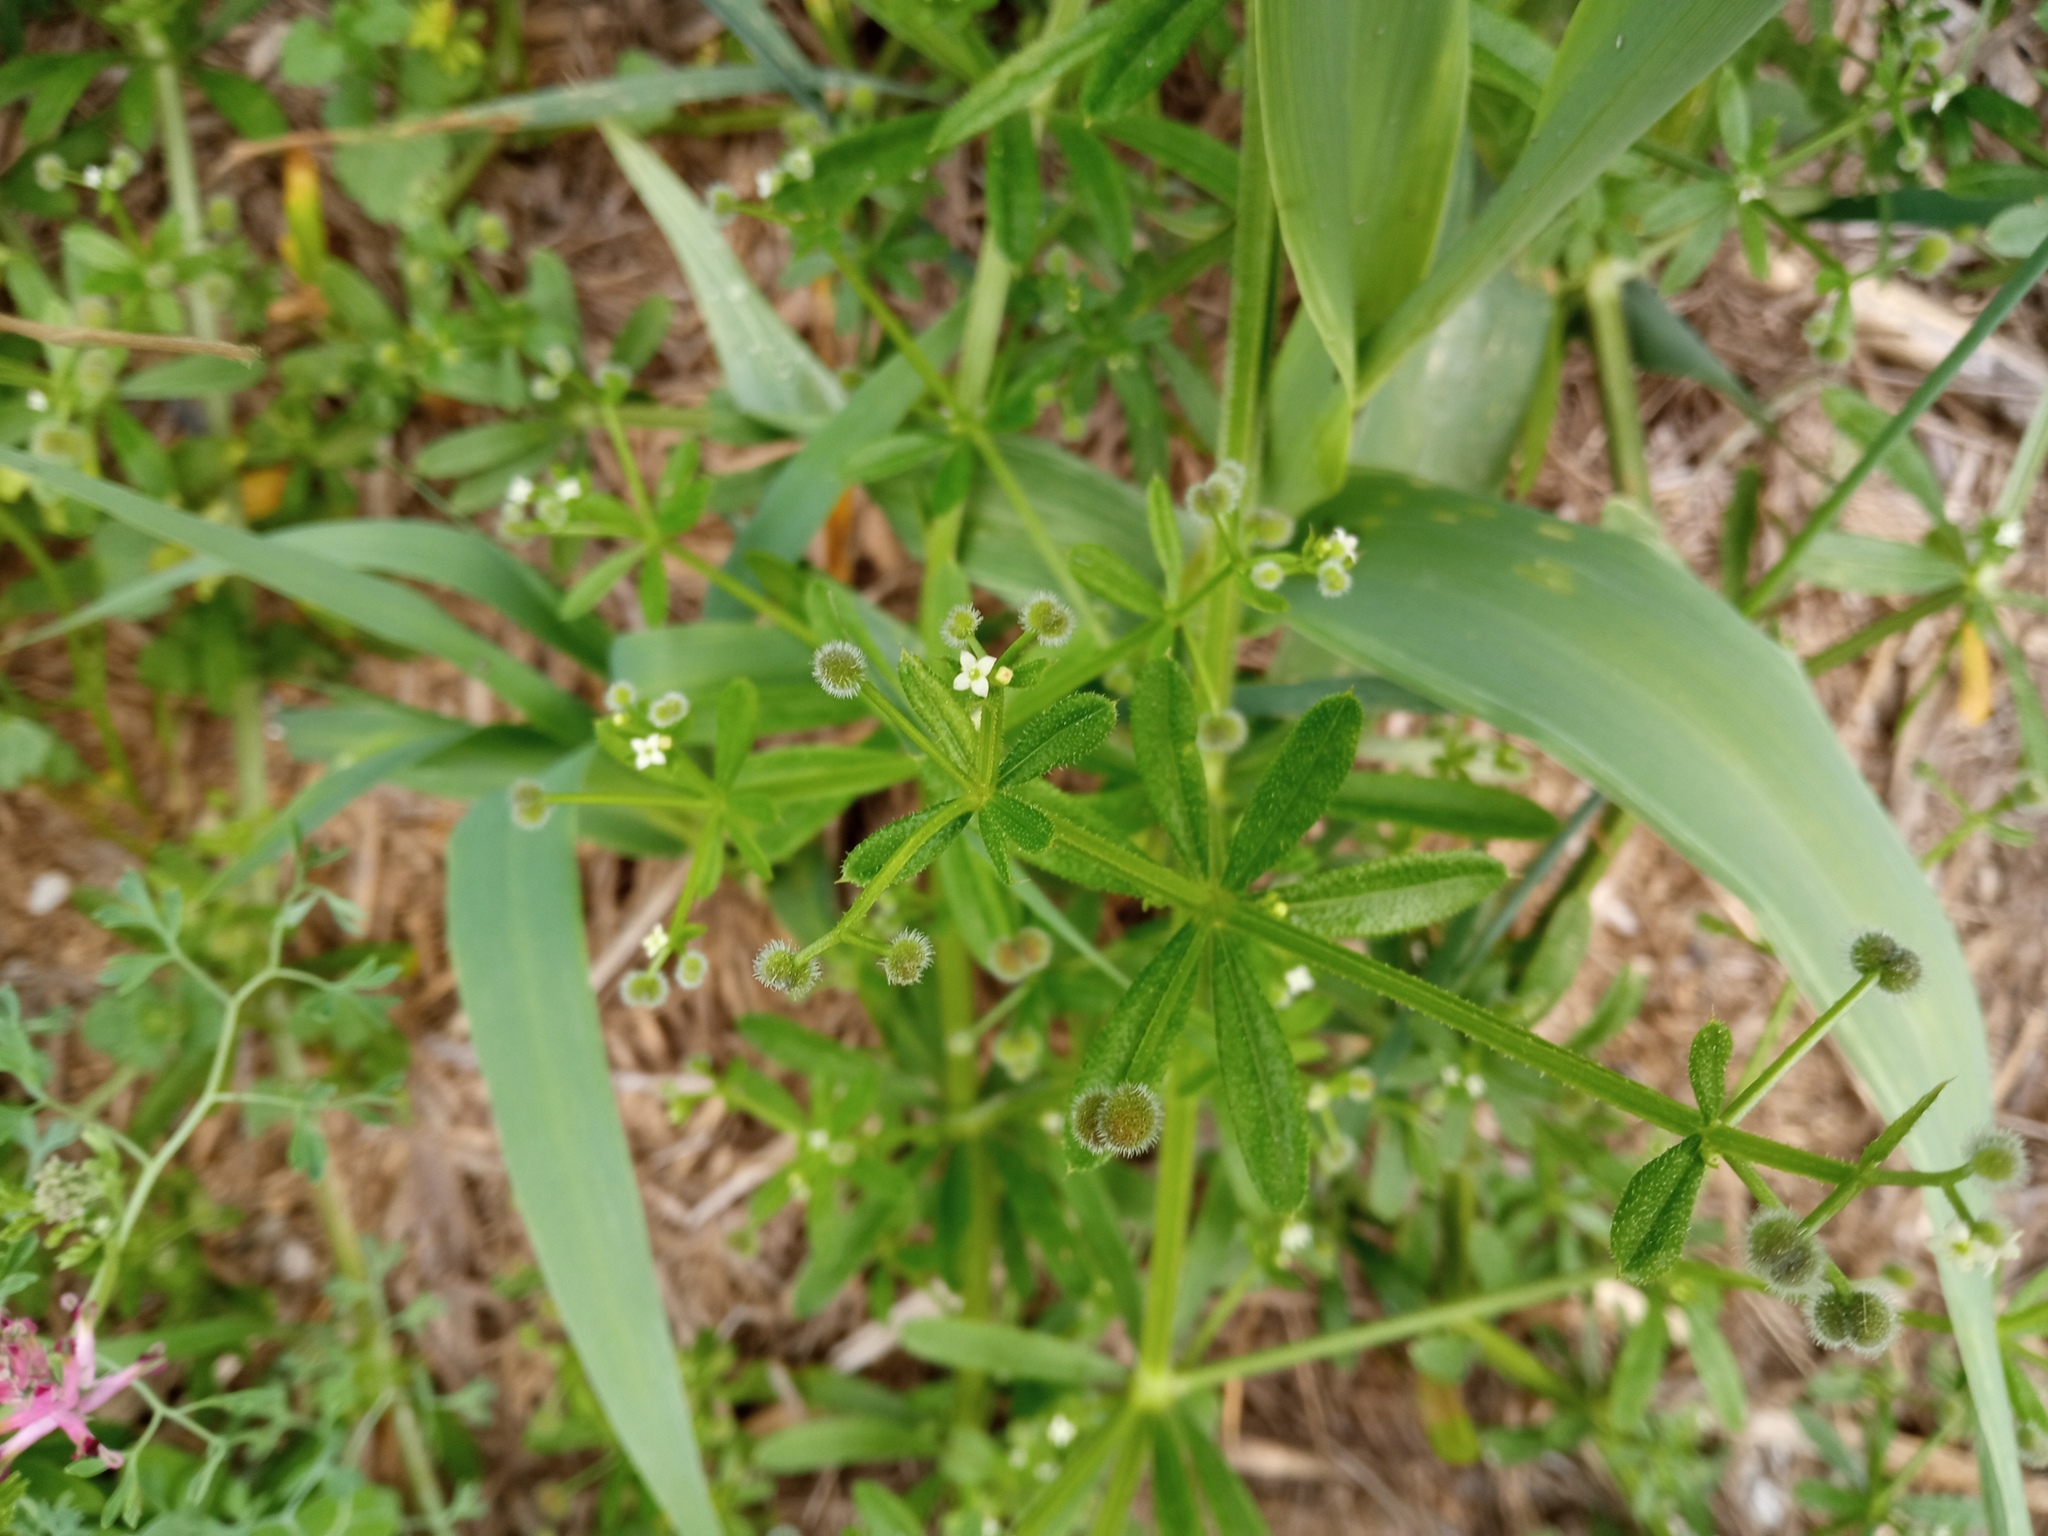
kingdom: Plantae
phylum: Tracheophyta
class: Magnoliopsida
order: Gentianales
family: Rubiaceae
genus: Galium
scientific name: Galium aparine
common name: Cleavers
